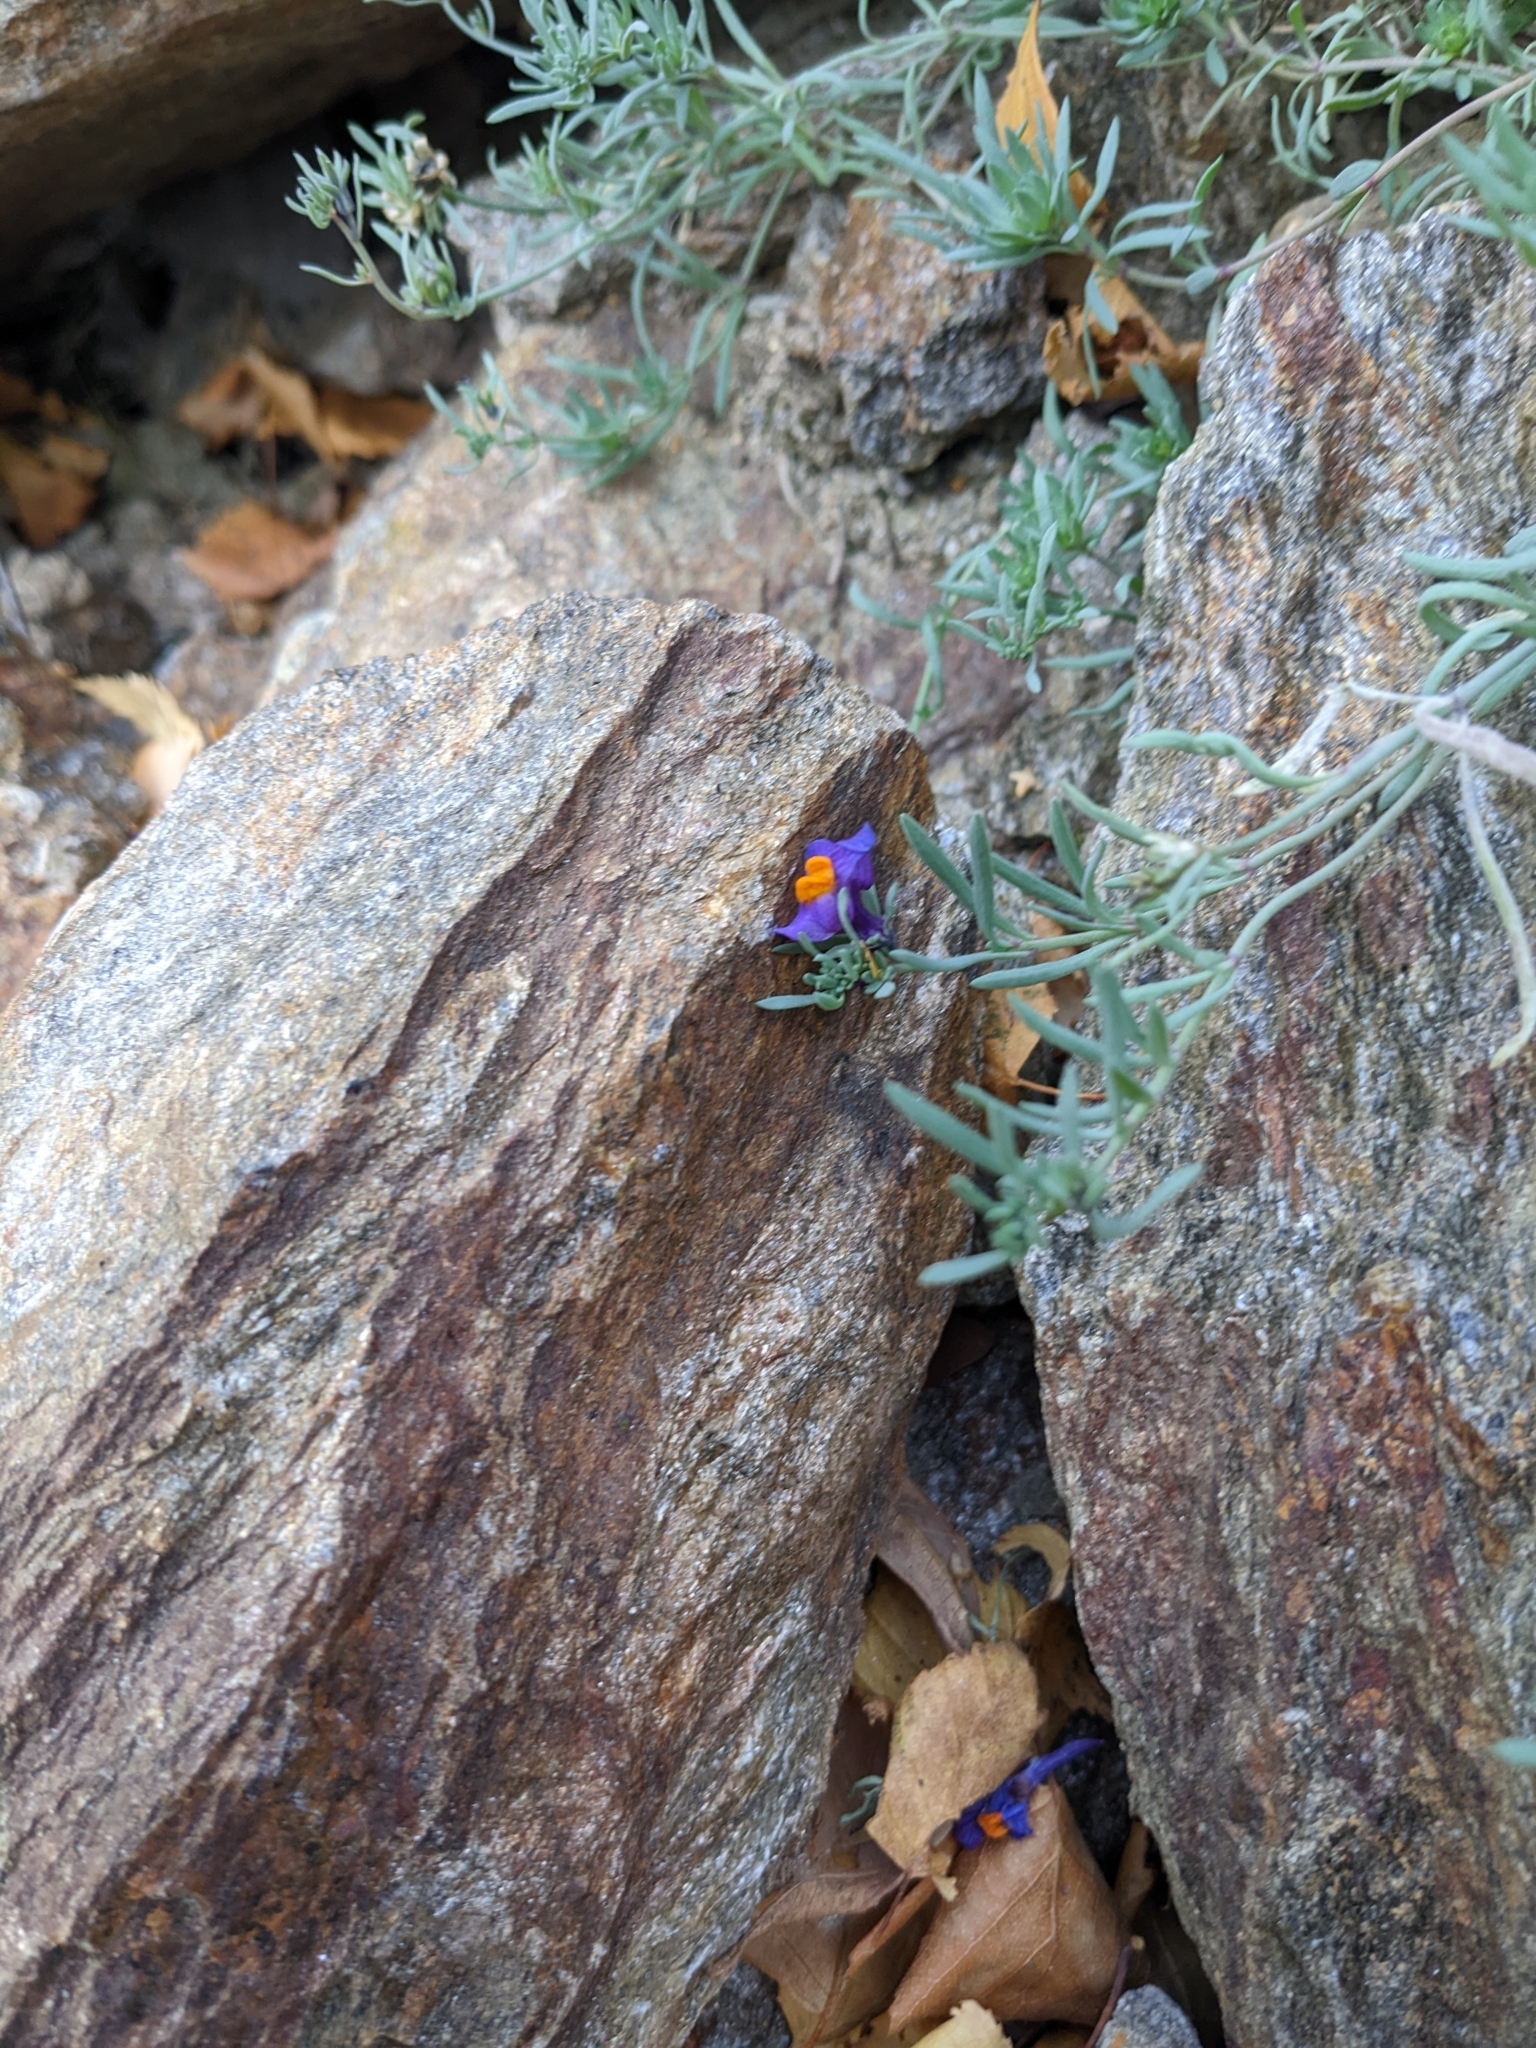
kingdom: Plantae
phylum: Tracheophyta
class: Magnoliopsida
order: Lamiales
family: Plantaginaceae
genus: Linaria
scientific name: Linaria alpina
